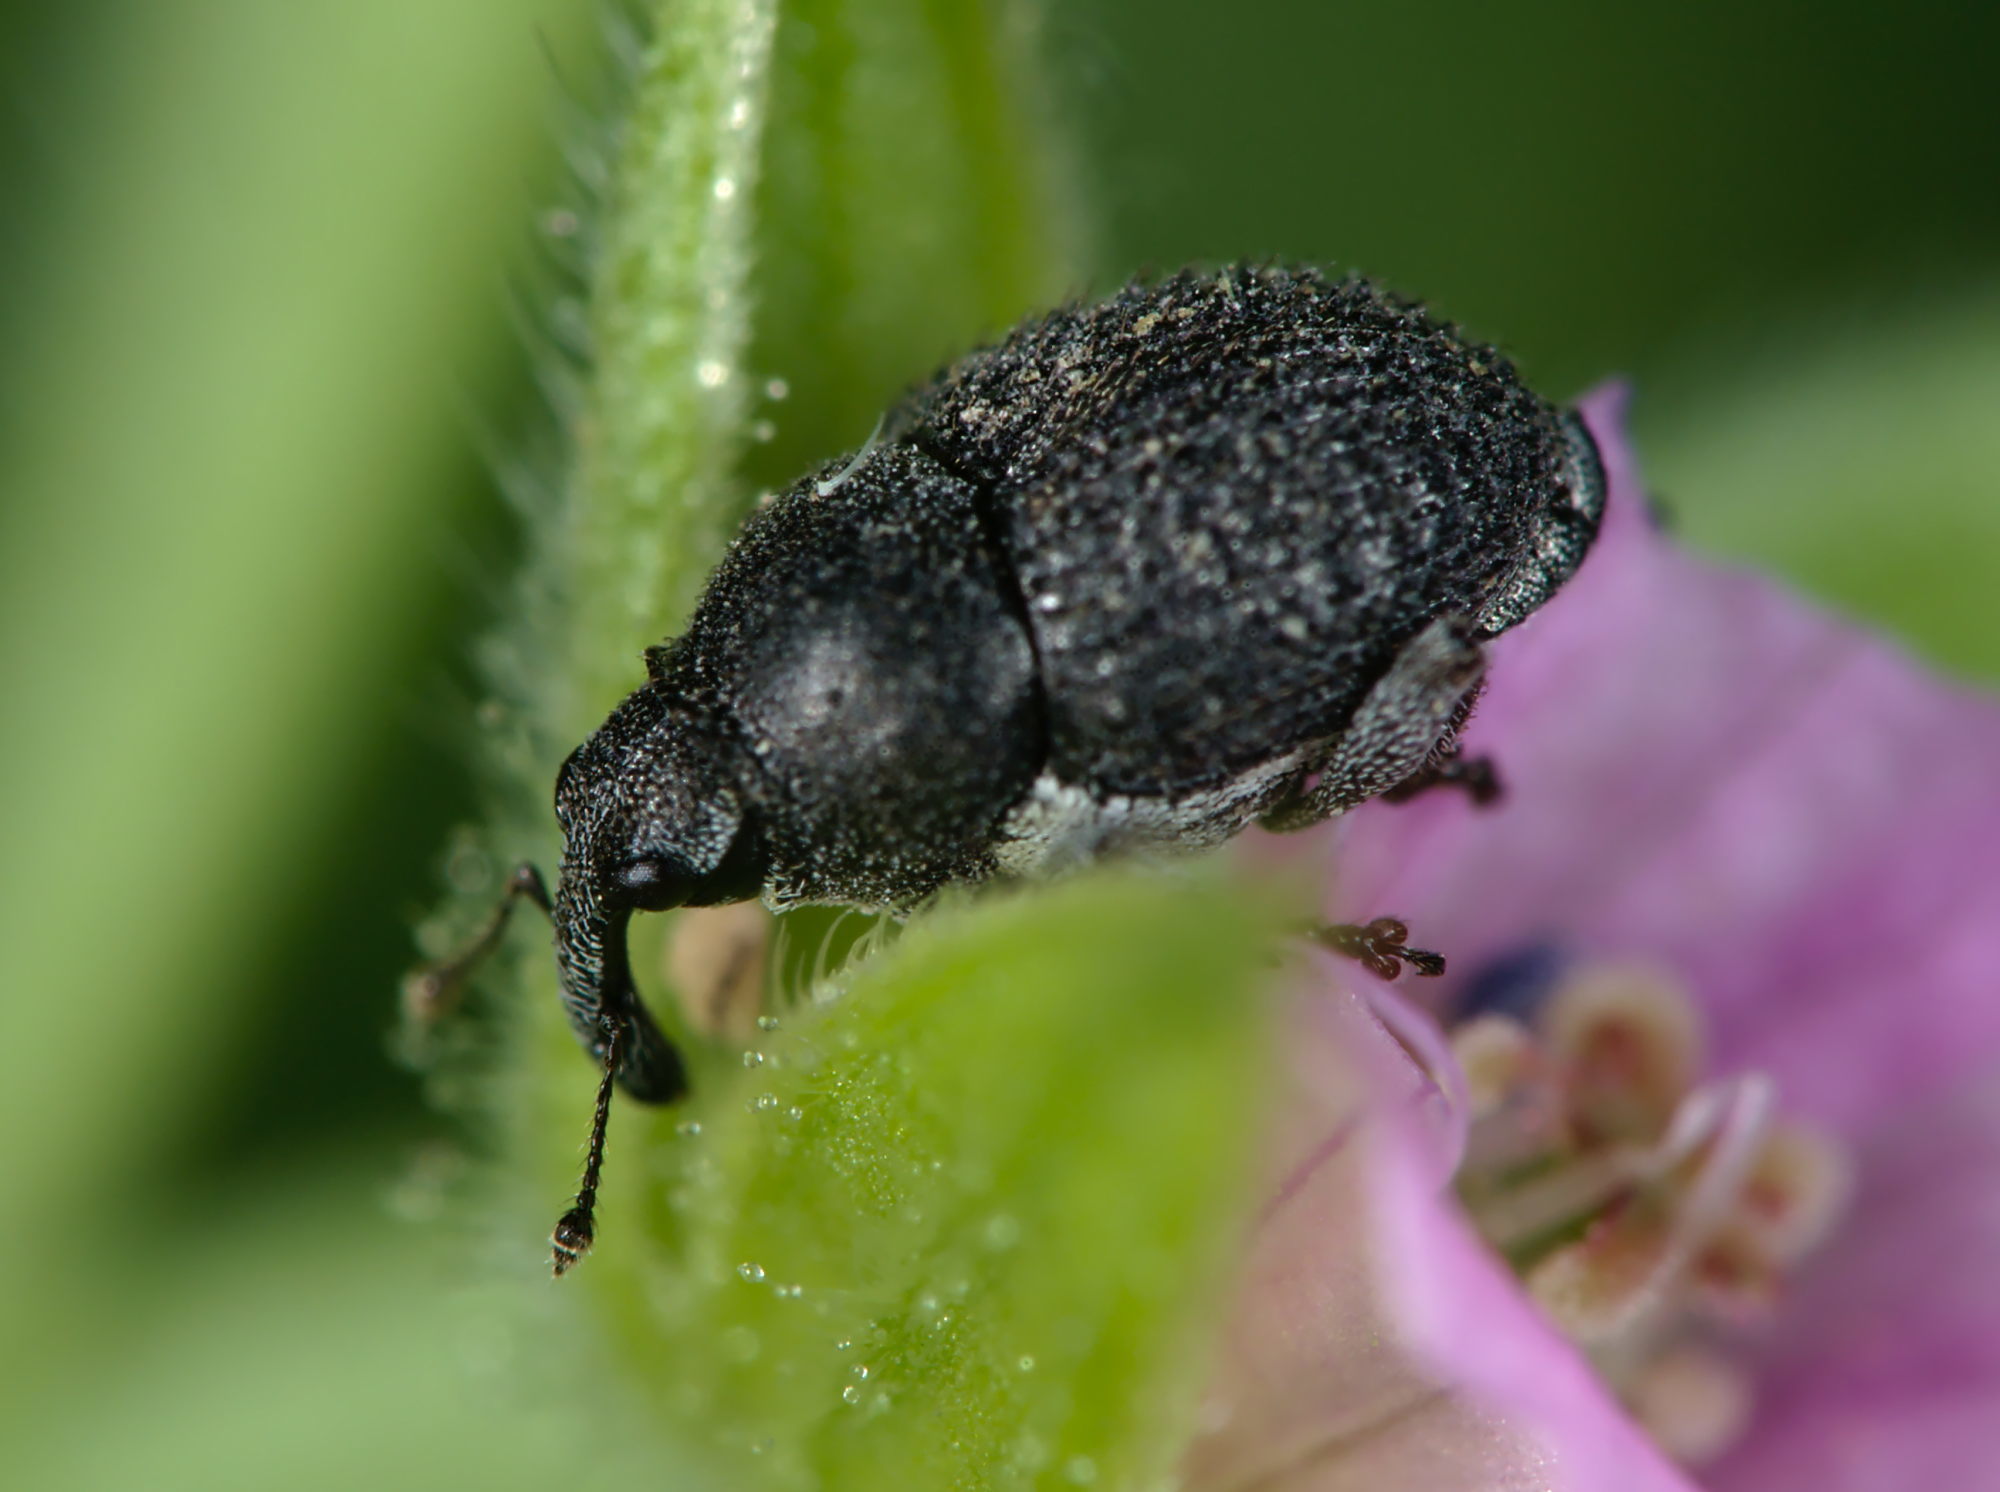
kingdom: Animalia
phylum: Arthropoda
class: Insecta
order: Coleoptera
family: Curculionidae
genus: Zacladus
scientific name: Zacladus exiguus
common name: Bloody cranesbill weevil
